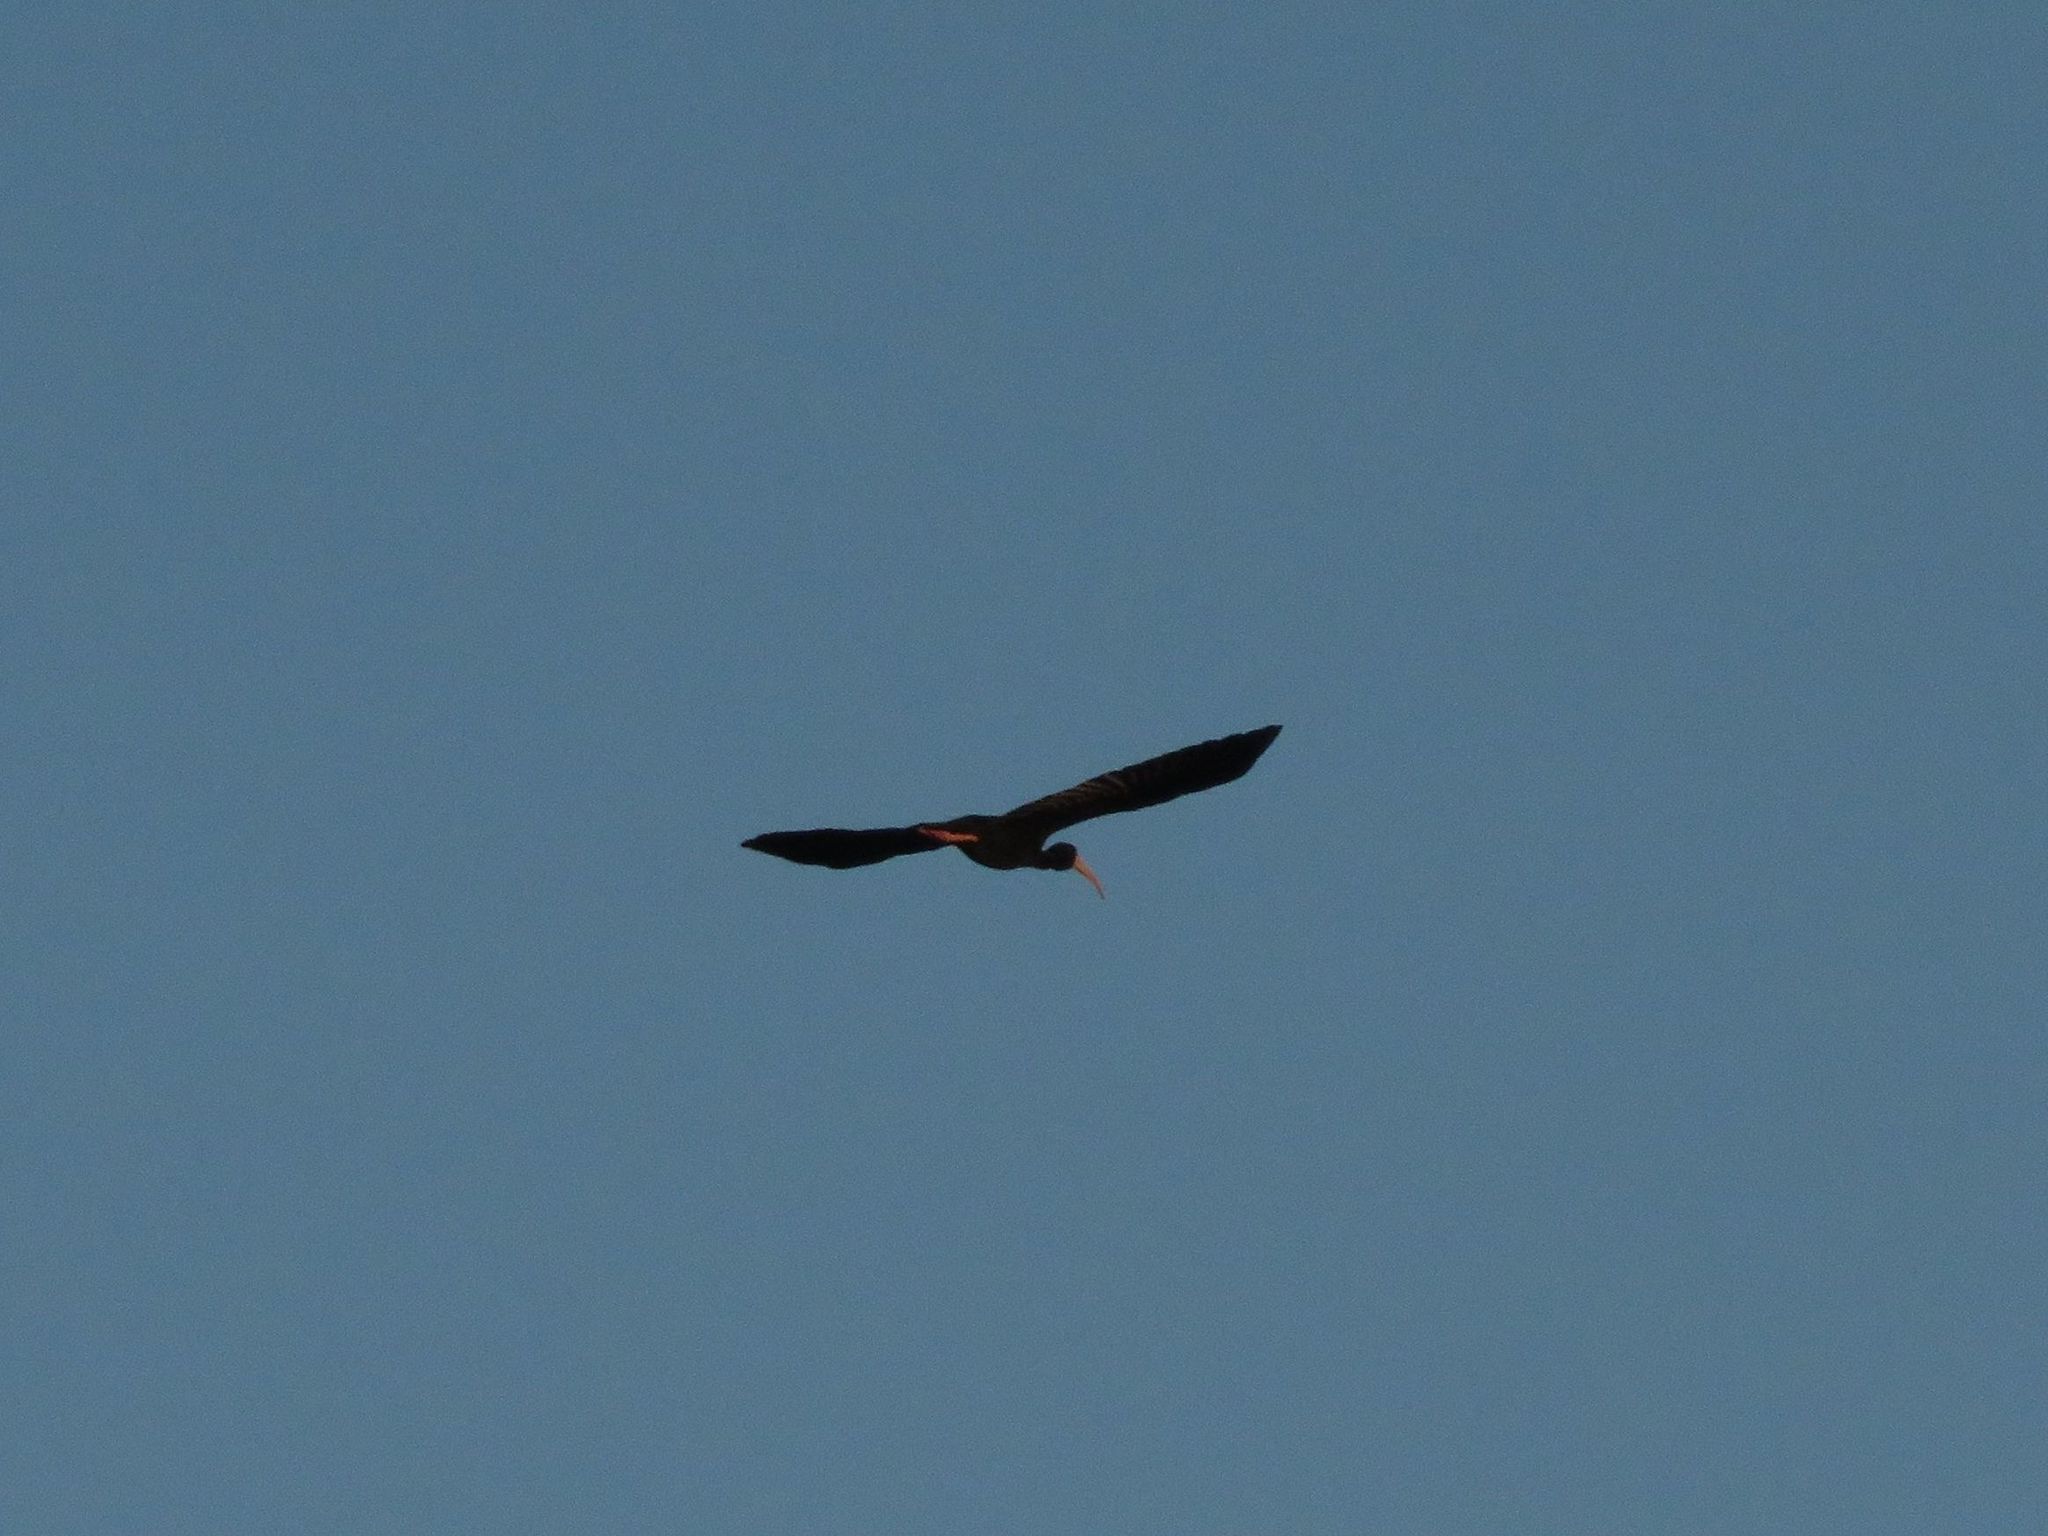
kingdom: Animalia
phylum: Chordata
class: Aves
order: Pelecaniformes
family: Threskiornithidae
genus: Phimosus
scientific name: Phimosus infuscatus
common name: Bare-faced ibis
